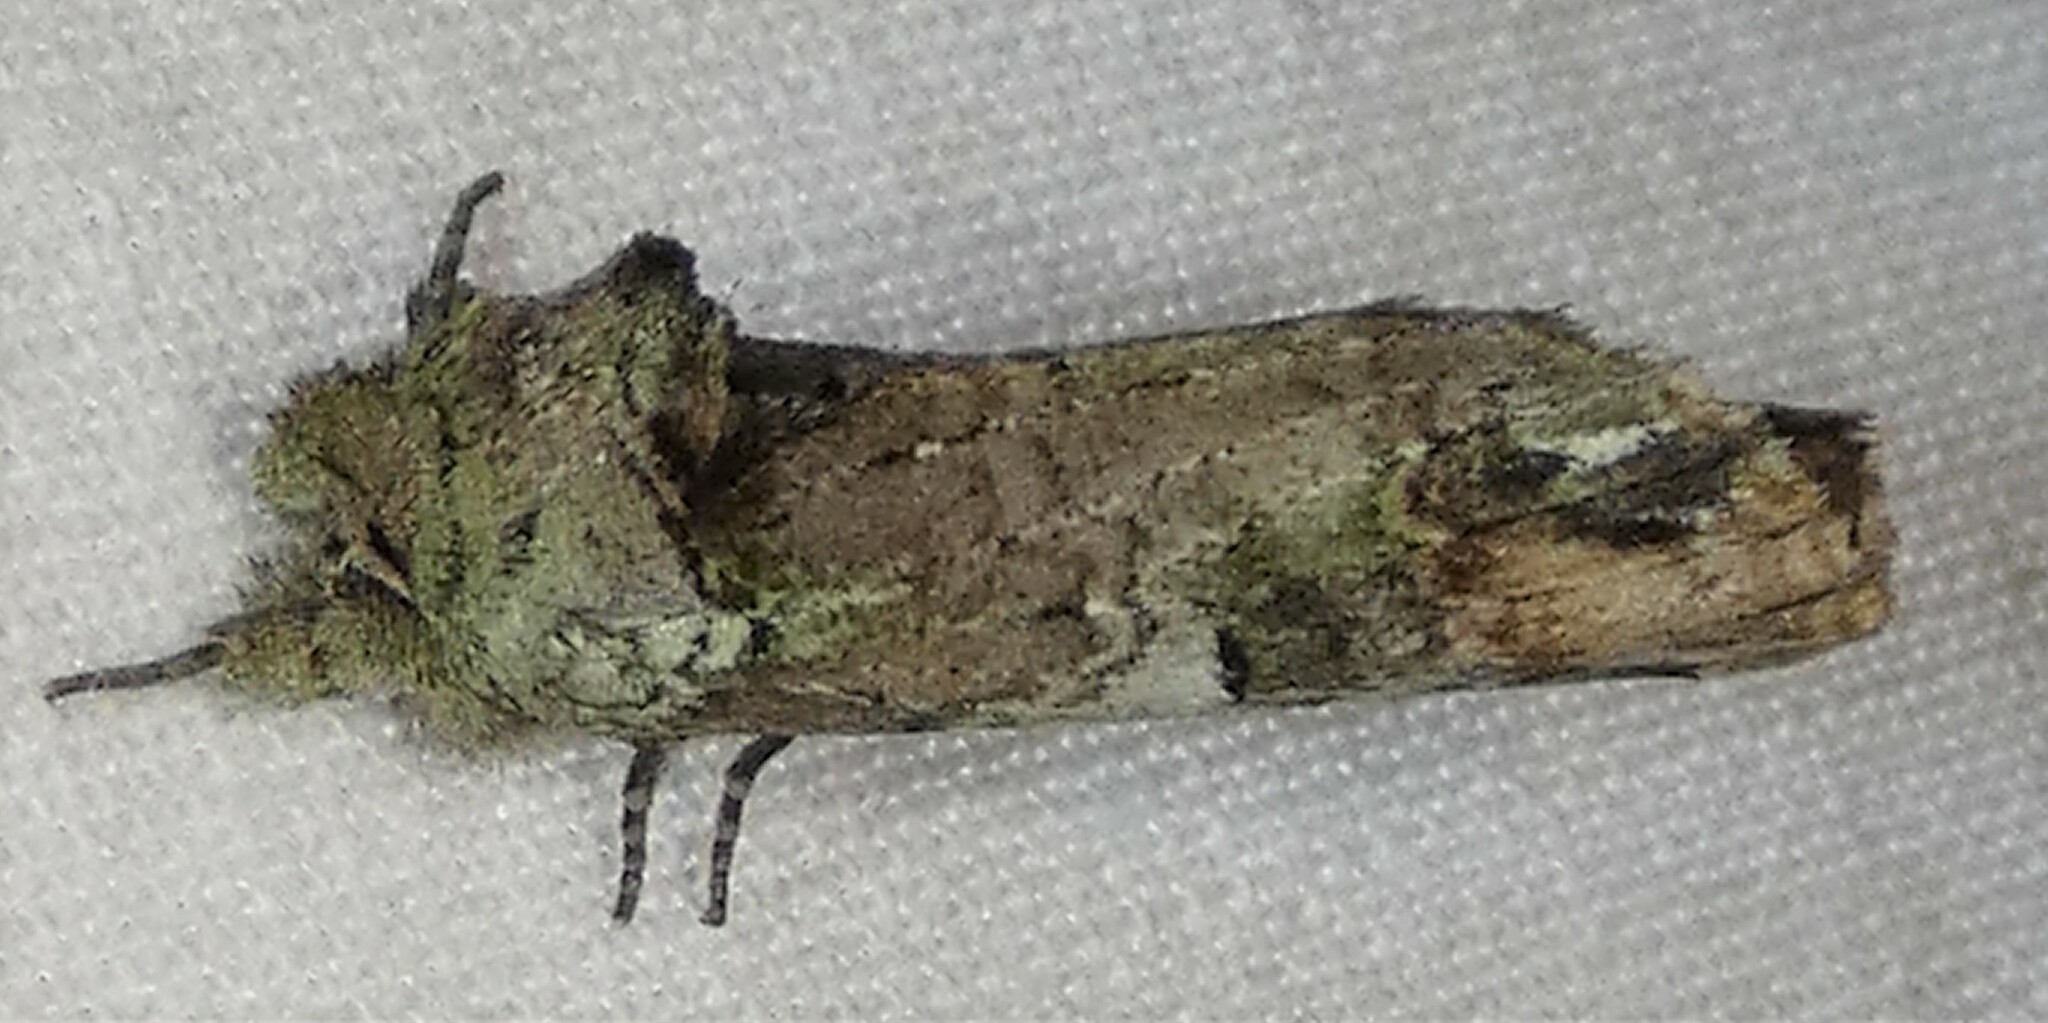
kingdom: Animalia
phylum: Arthropoda
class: Insecta
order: Lepidoptera
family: Notodontidae
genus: Schizura
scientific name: Schizura
